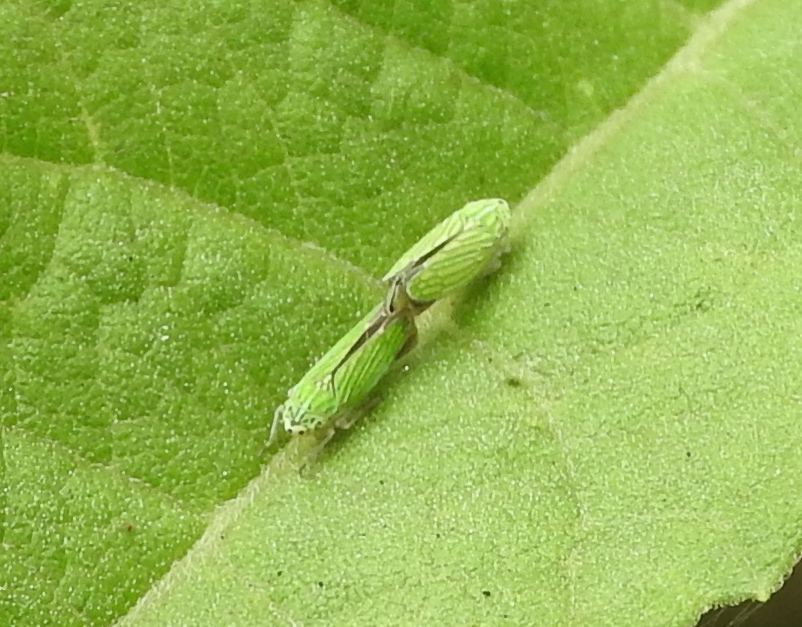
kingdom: Animalia
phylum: Arthropoda
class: Insecta
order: Hemiptera
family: Cicadellidae
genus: Graphocephala
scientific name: Graphocephala
